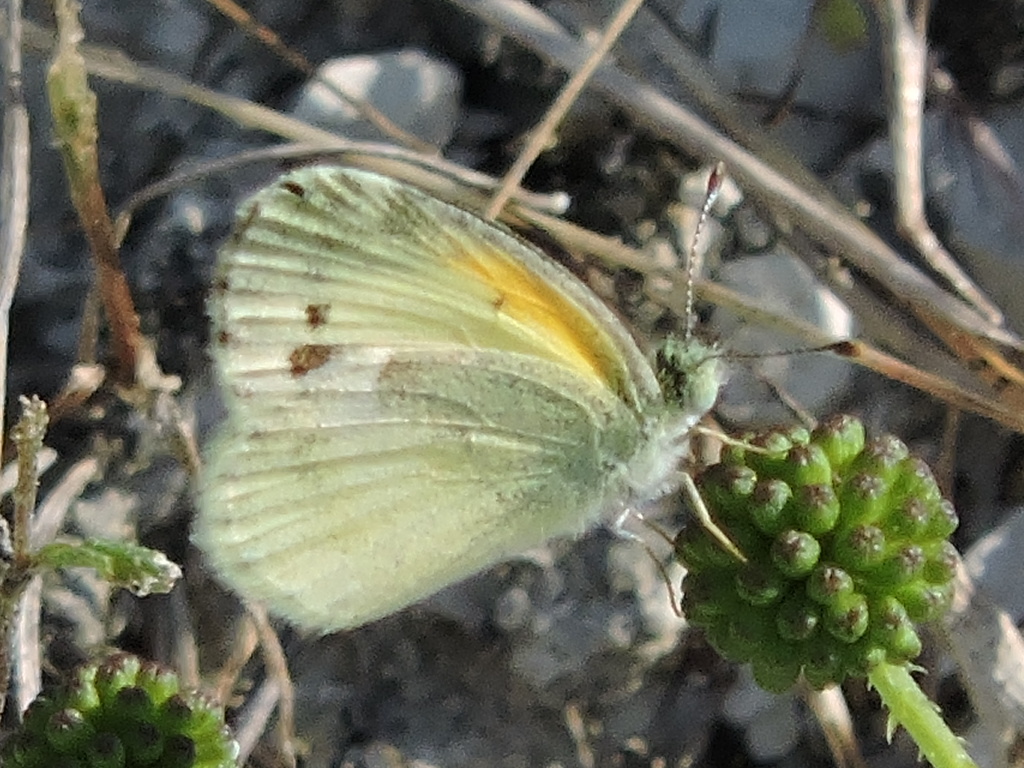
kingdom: Animalia
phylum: Arthropoda
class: Insecta
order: Lepidoptera
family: Pieridae
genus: Nathalis
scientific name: Nathalis iole
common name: Dainty sulphur
